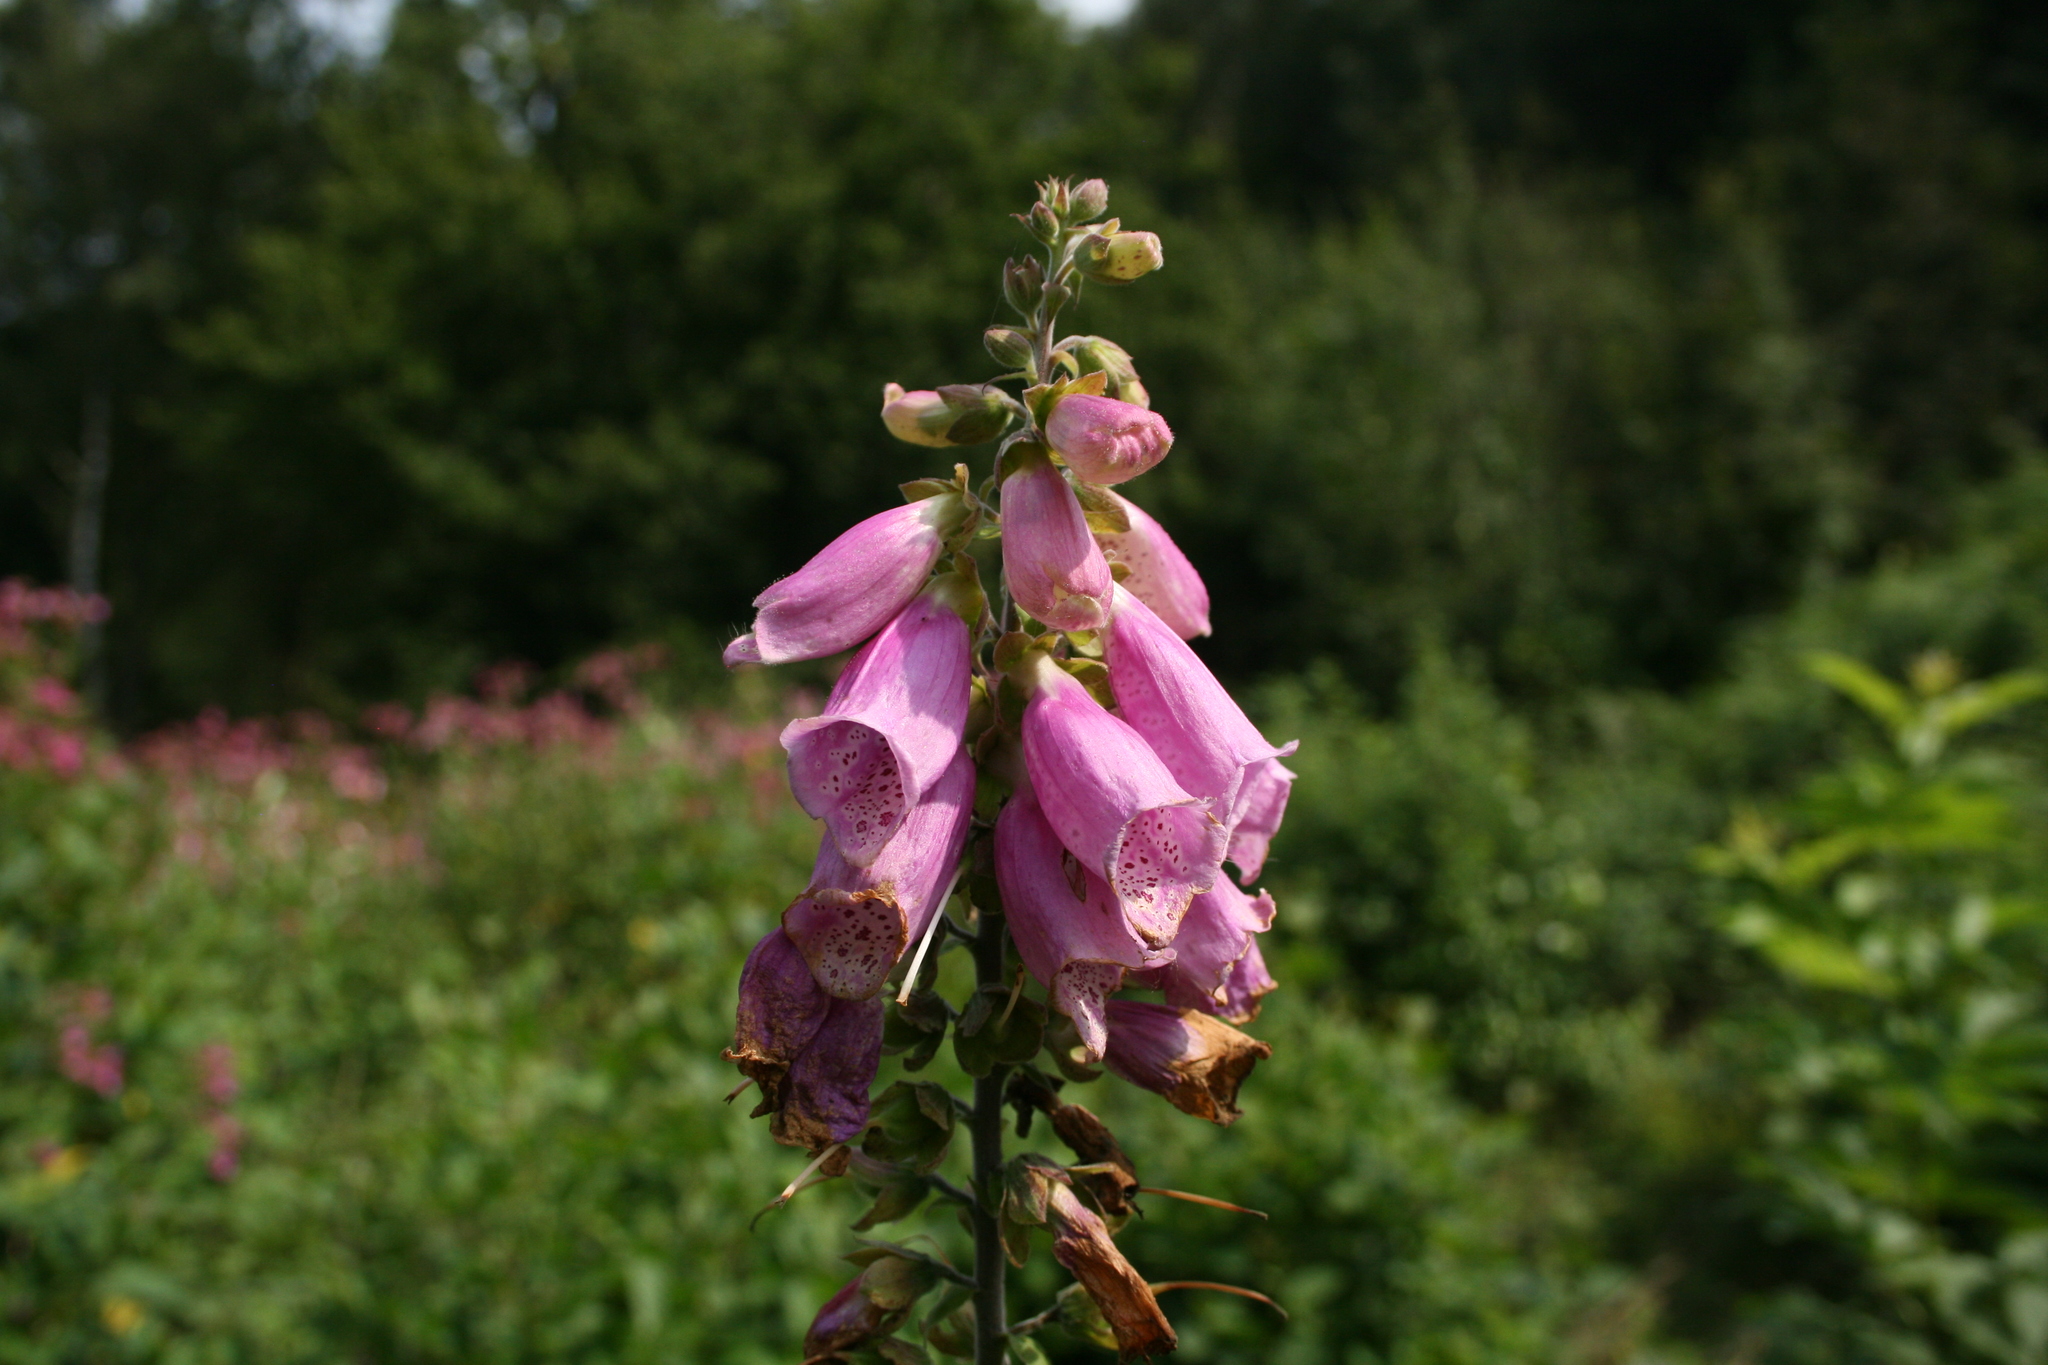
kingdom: Plantae
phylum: Tracheophyta
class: Magnoliopsida
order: Lamiales
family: Plantaginaceae
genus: Digitalis
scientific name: Digitalis purpurea
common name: Foxglove
